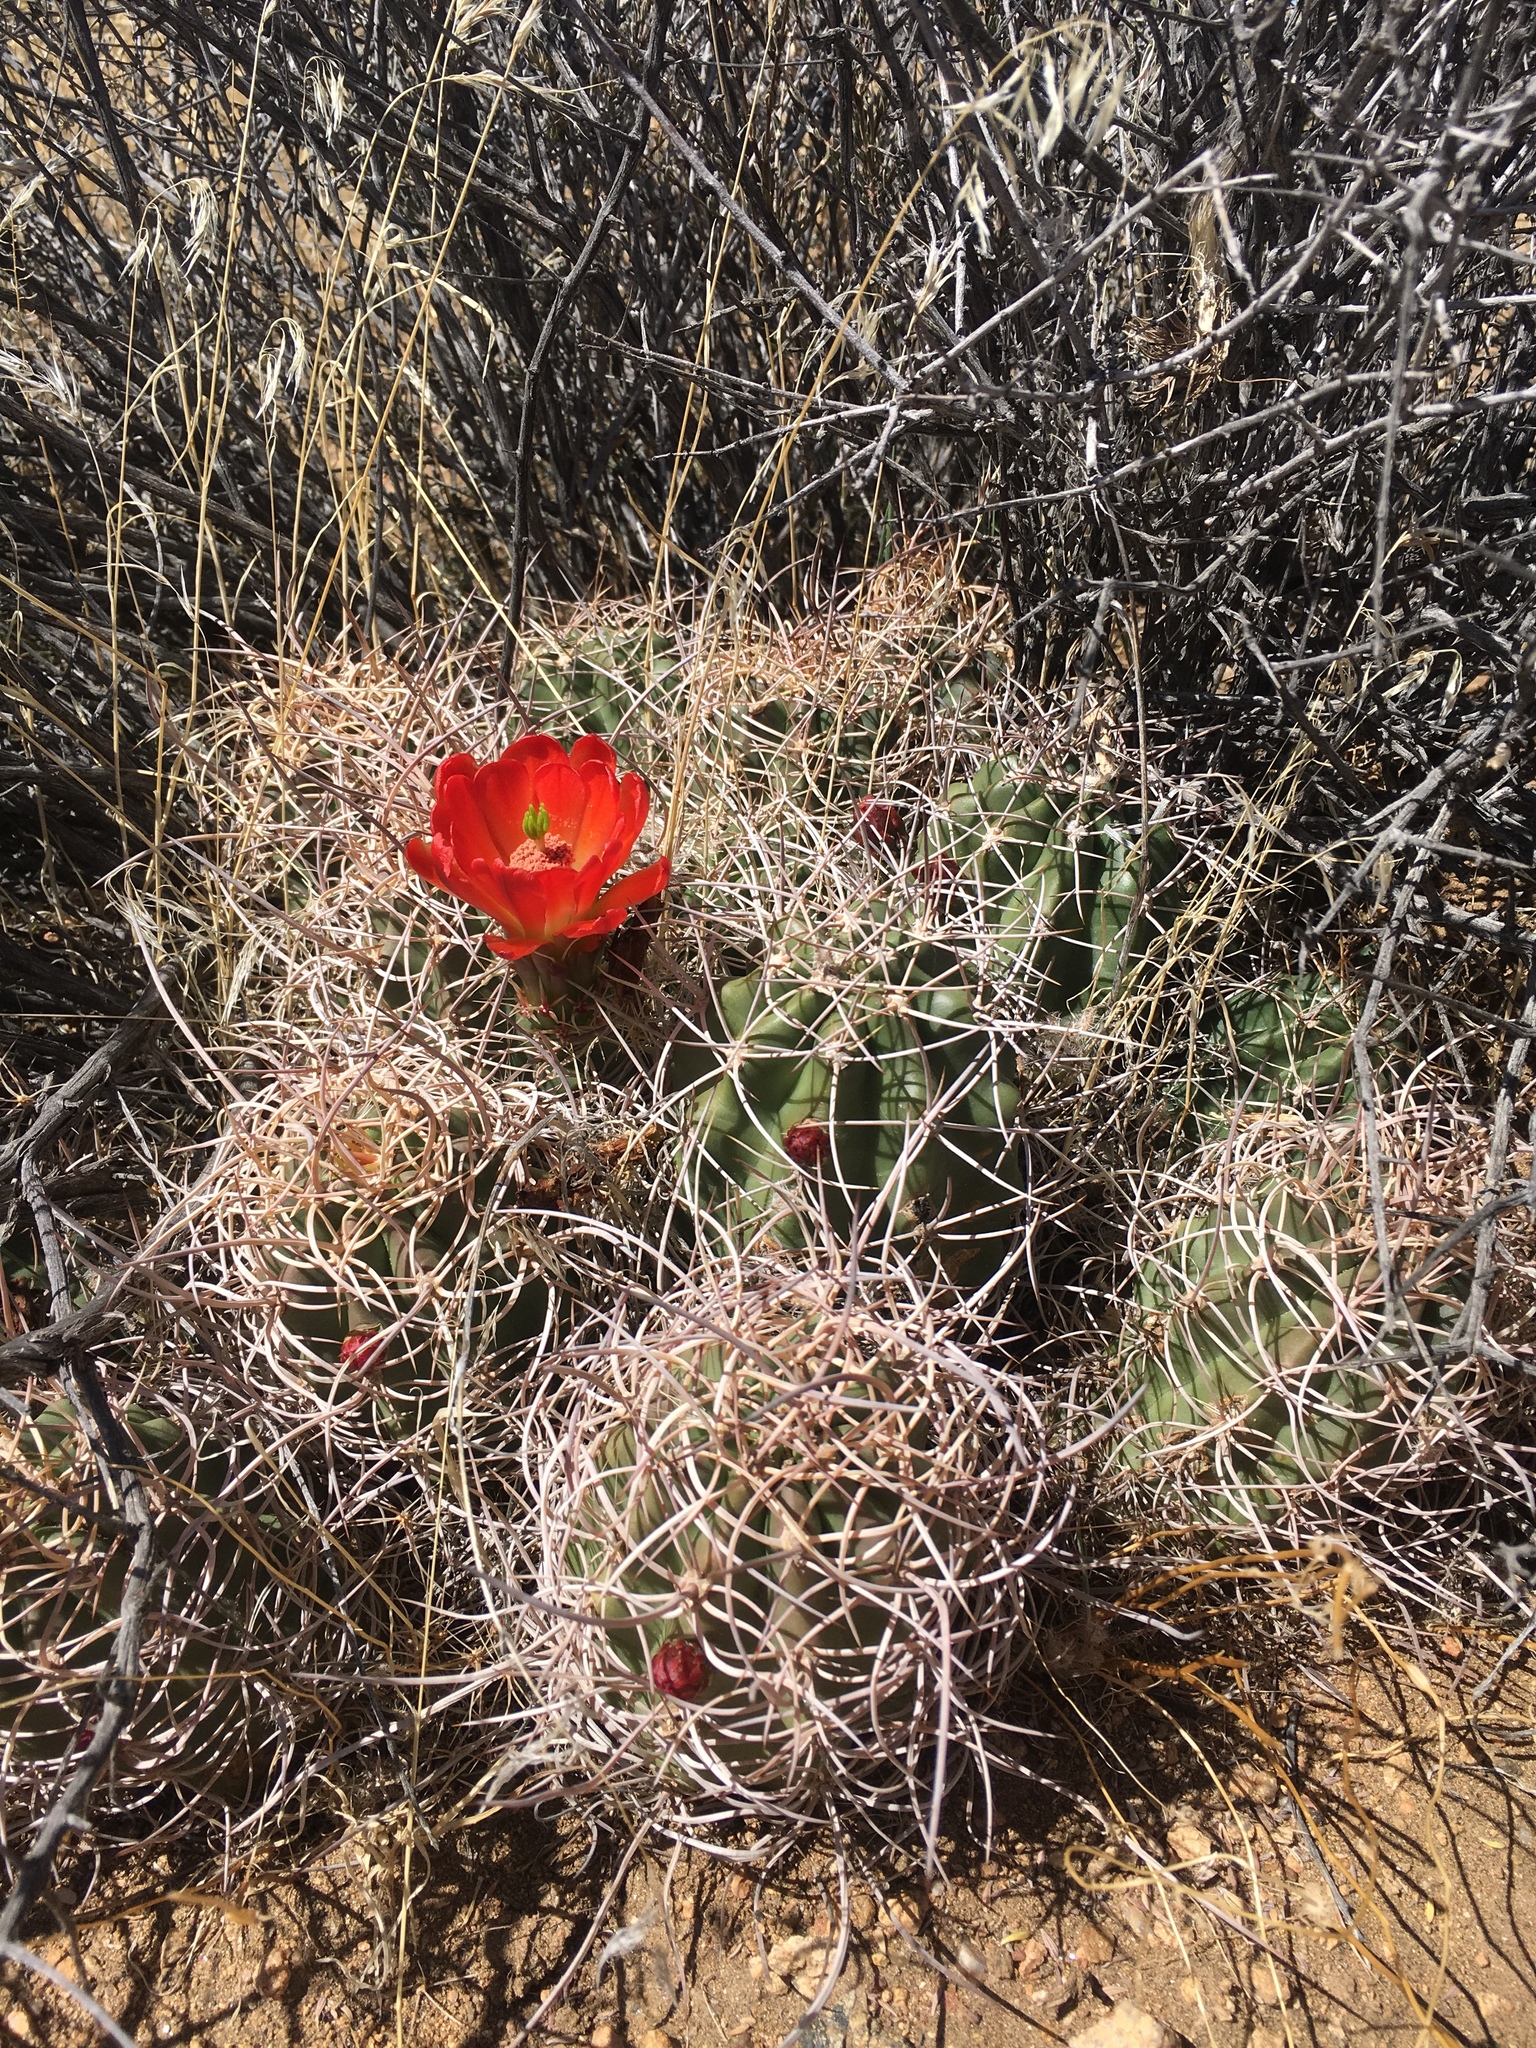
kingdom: Plantae
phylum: Tracheophyta
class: Magnoliopsida
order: Caryophyllales
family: Cactaceae
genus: Echinocereus
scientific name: Echinocereus triglochidiatus
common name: Claretcup hedgehog
